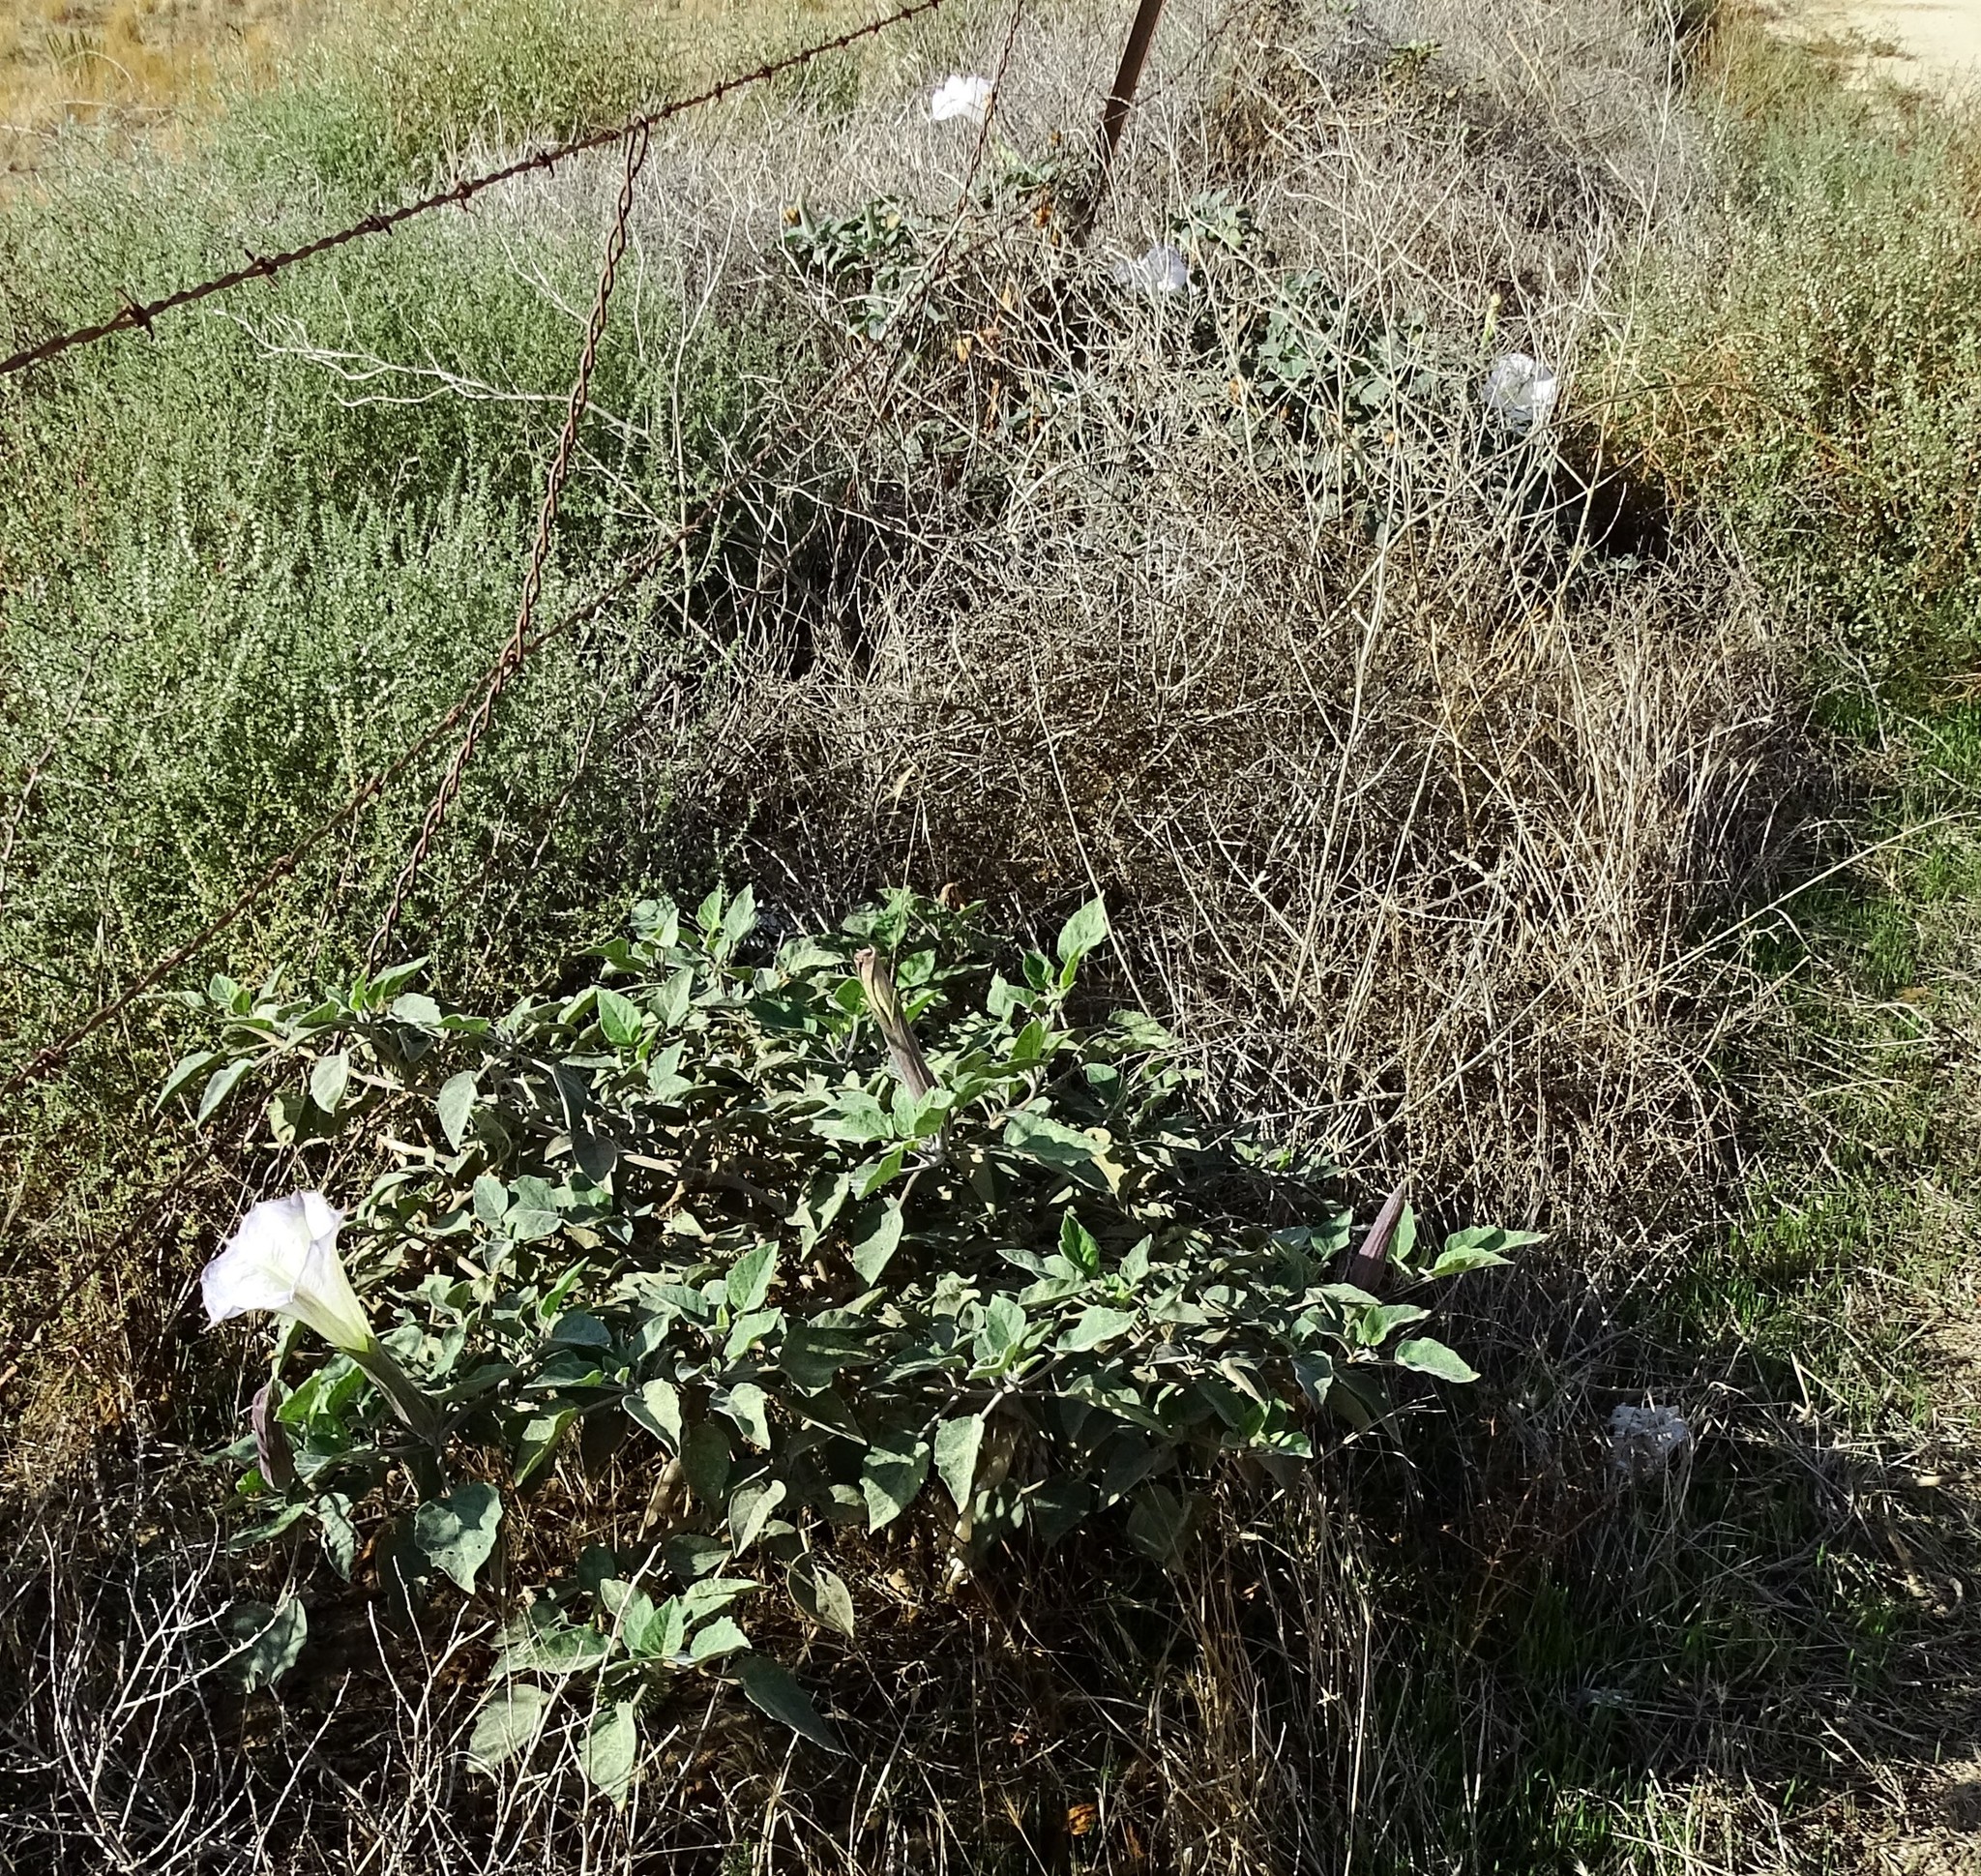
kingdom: Plantae
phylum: Tracheophyta
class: Magnoliopsida
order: Solanales
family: Solanaceae
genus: Datura
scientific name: Datura wrightii
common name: Sacred thorn-apple
